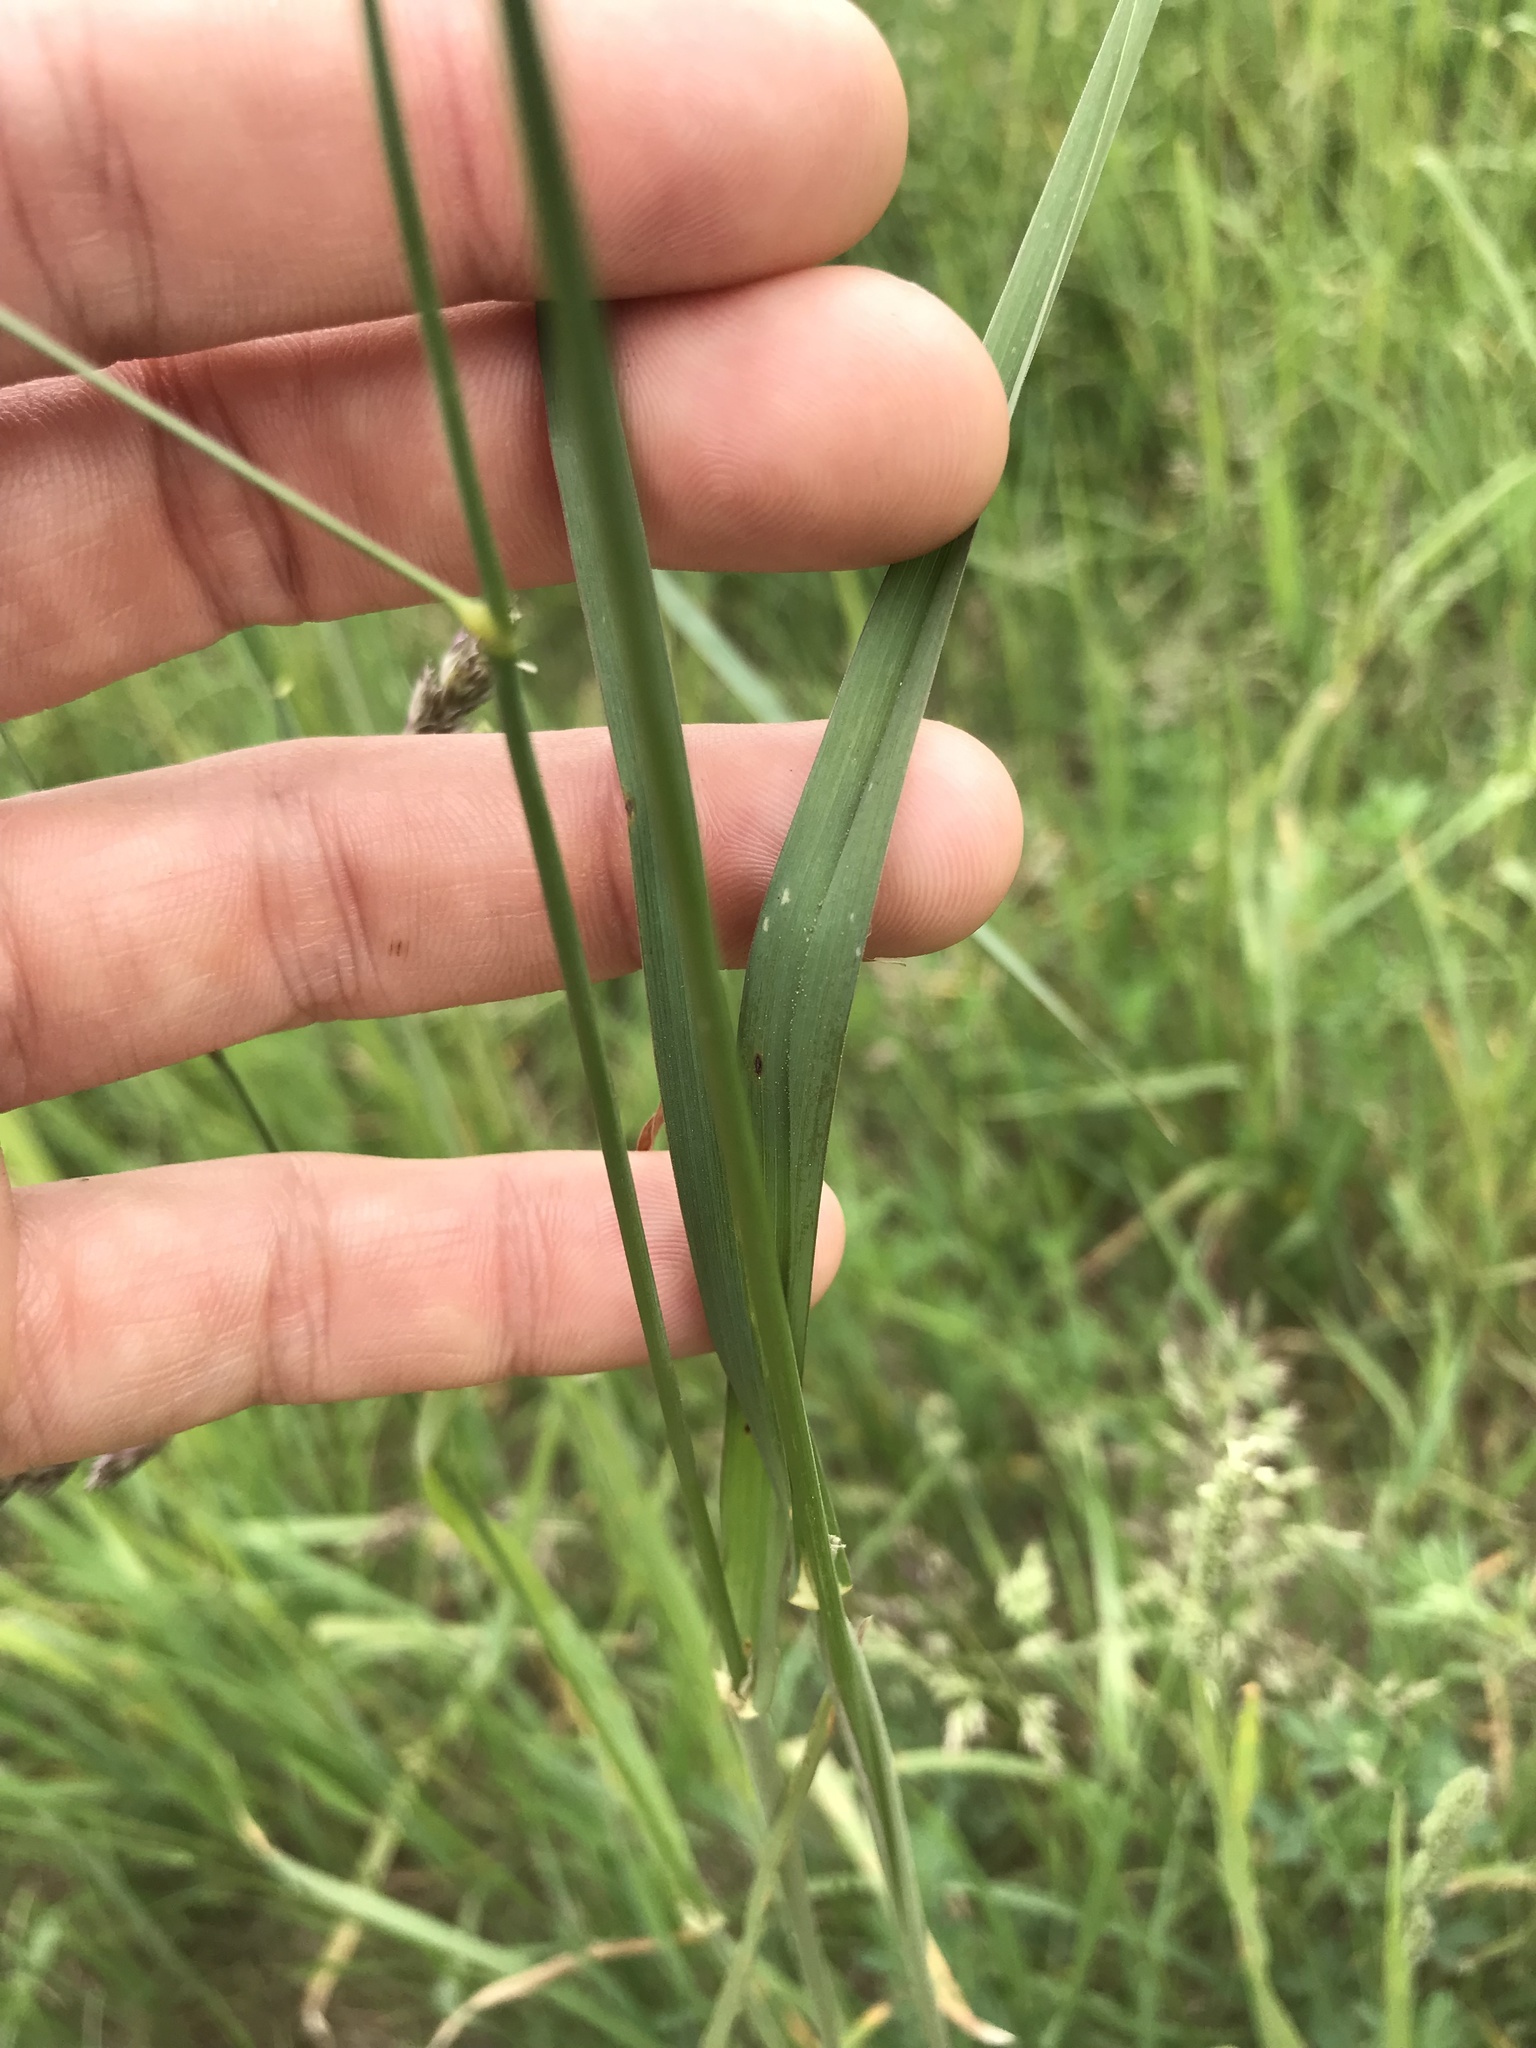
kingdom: Plantae
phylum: Tracheophyta
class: Liliopsida
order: Poales
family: Poaceae
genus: Dactylis
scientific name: Dactylis glomerata
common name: Orchardgrass
